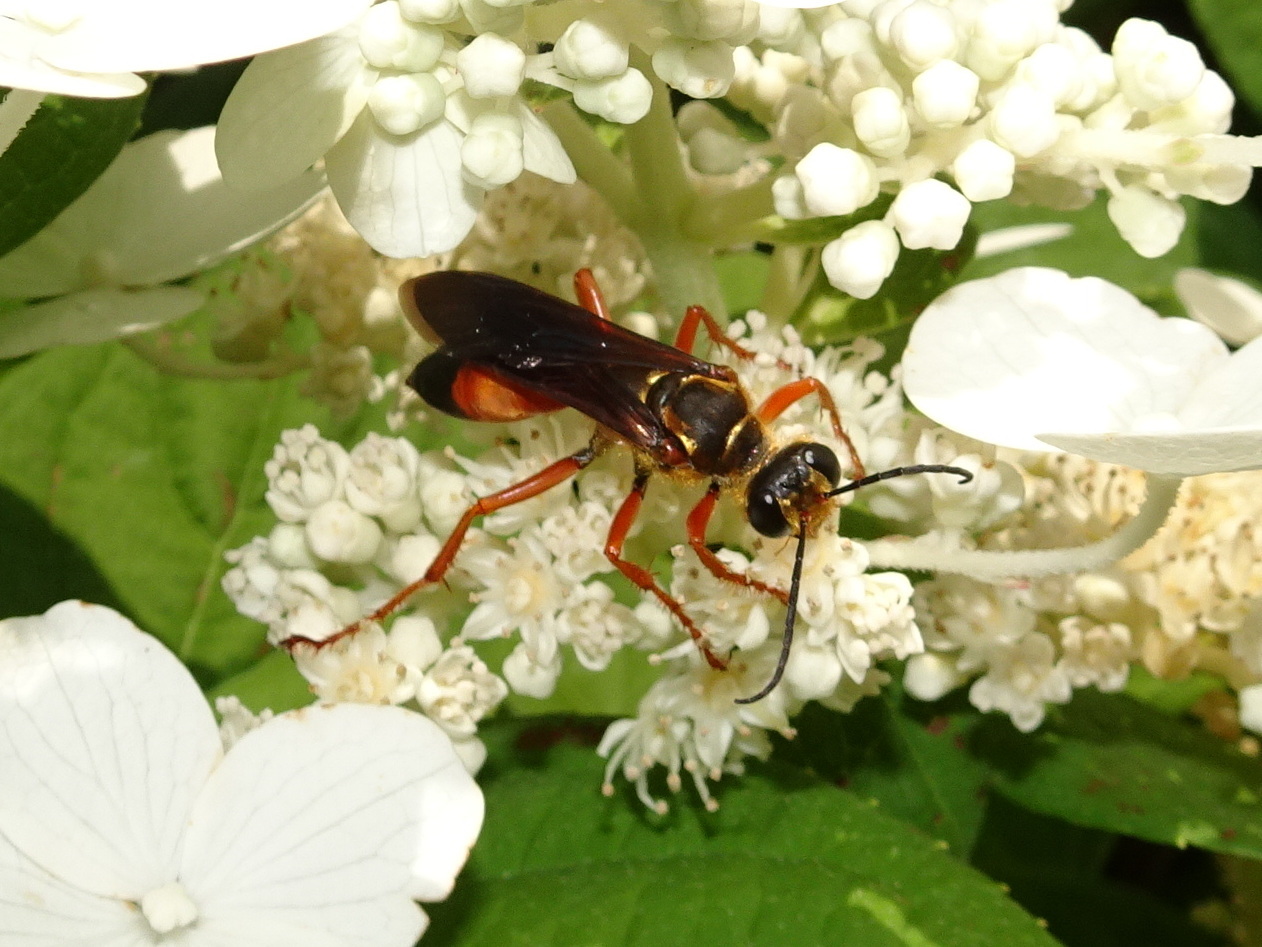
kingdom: Animalia
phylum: Arthropoda
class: Insecta
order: Hymenoptera
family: Sphecidae
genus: Sphex
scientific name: Sphex ichneumoneus
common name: Great golden digger wasp
